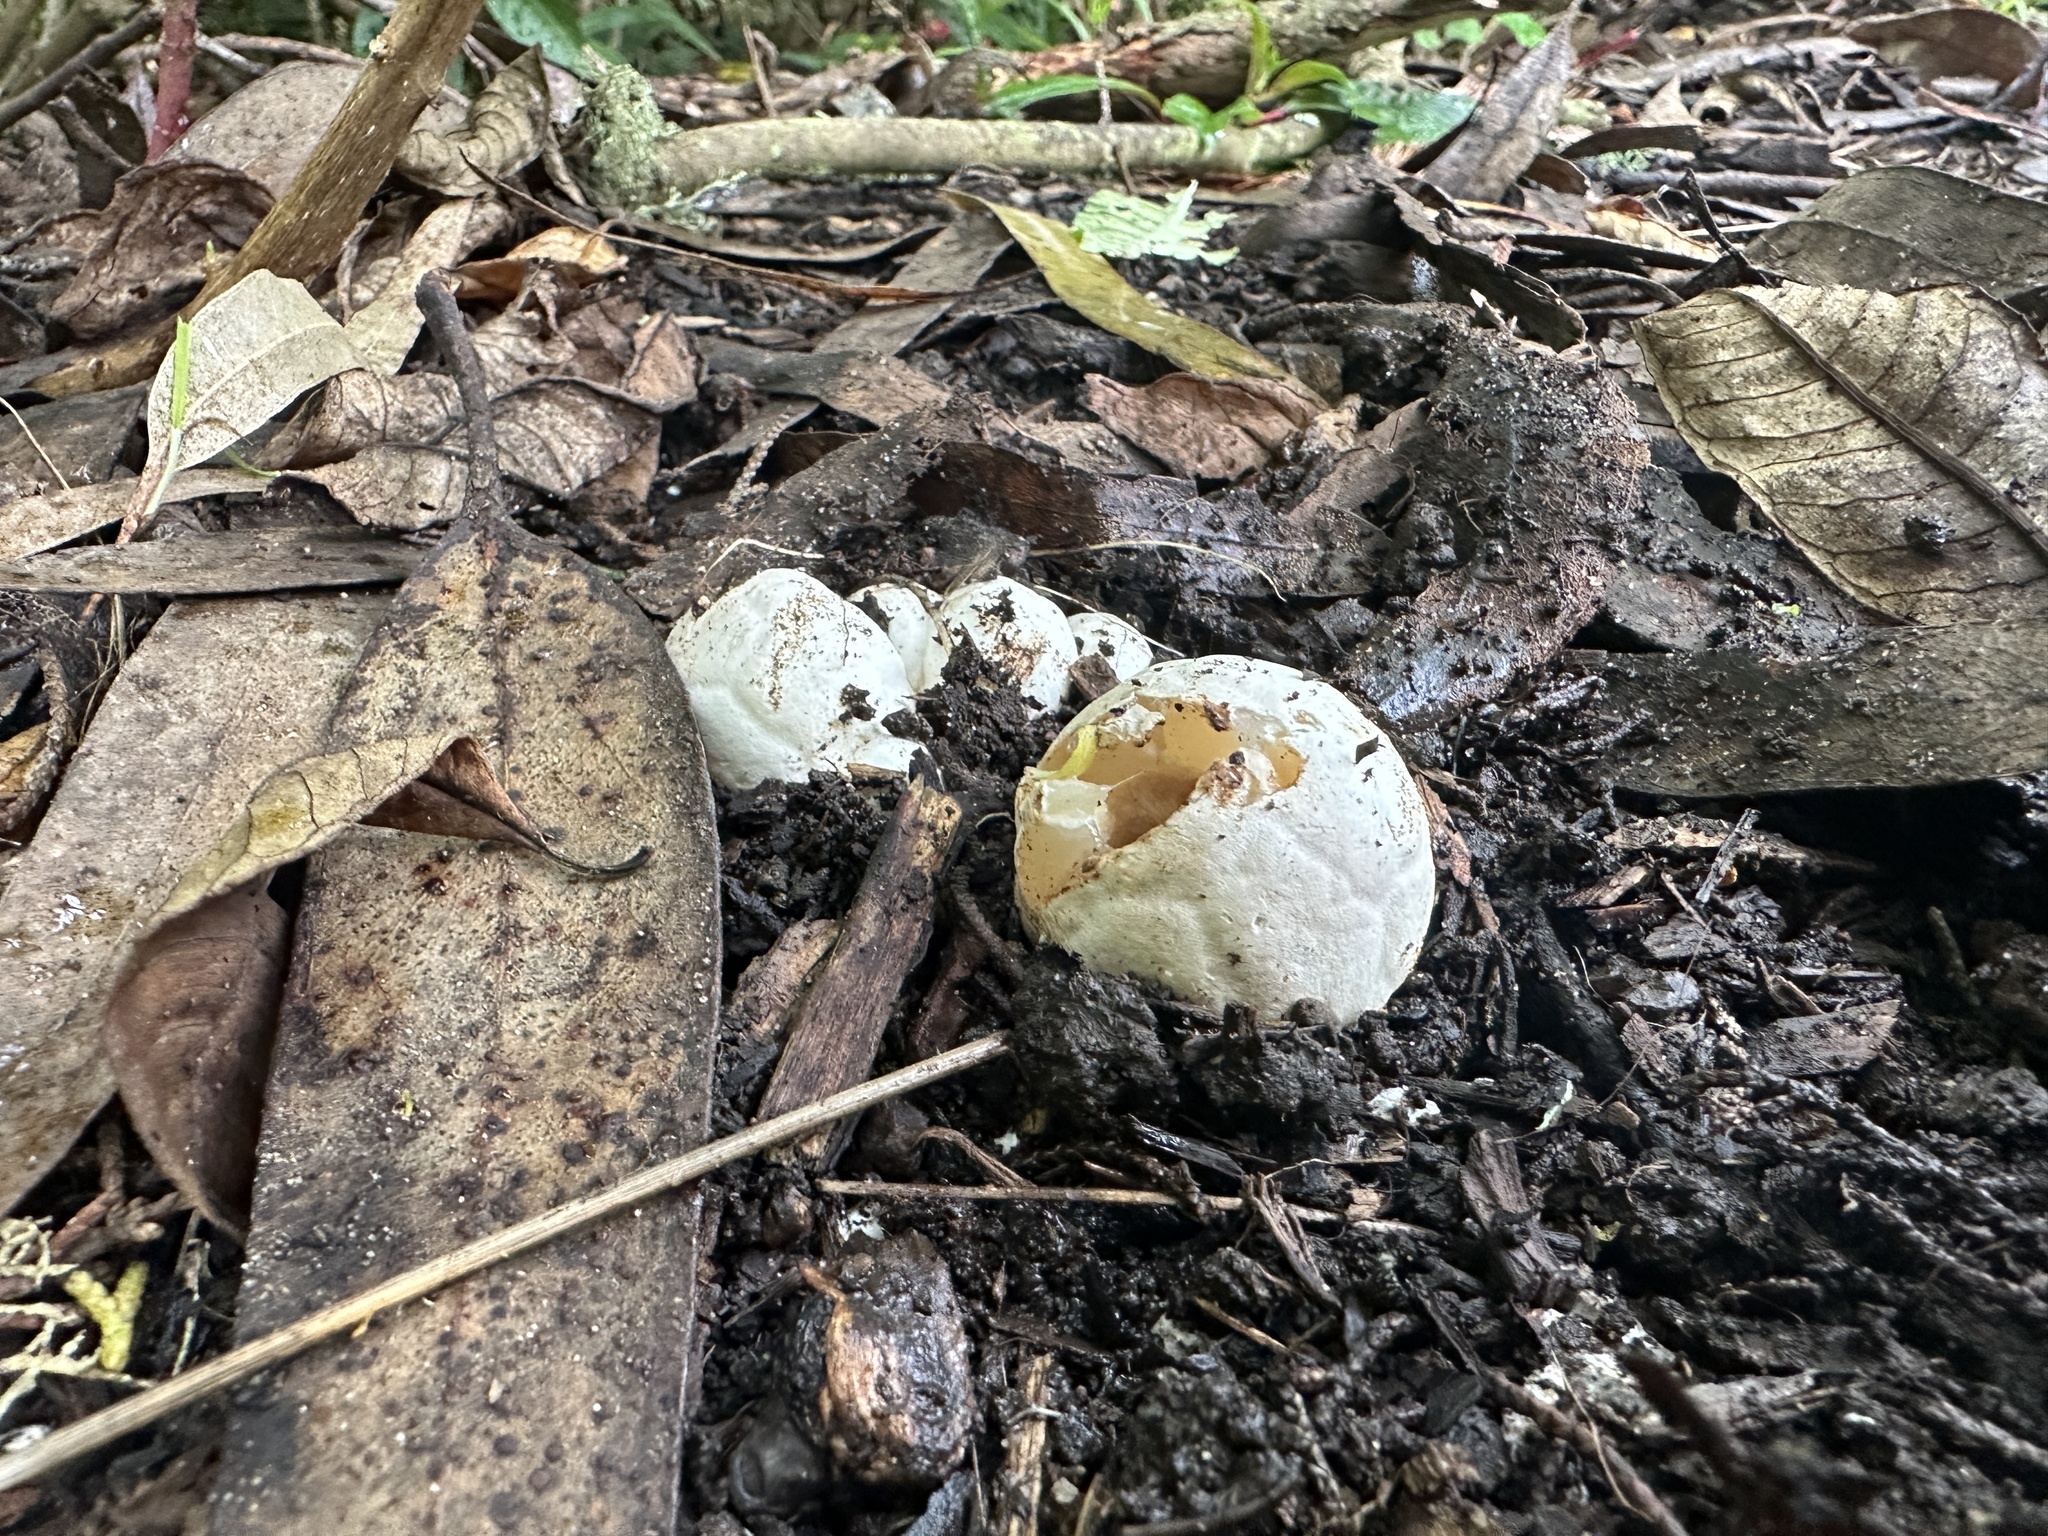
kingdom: Fungi
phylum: Basidiomycota
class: Agaricomycetes
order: Phallales
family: Phallaceae
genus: Clathrus
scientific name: Clathrus ruber
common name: Red cage
